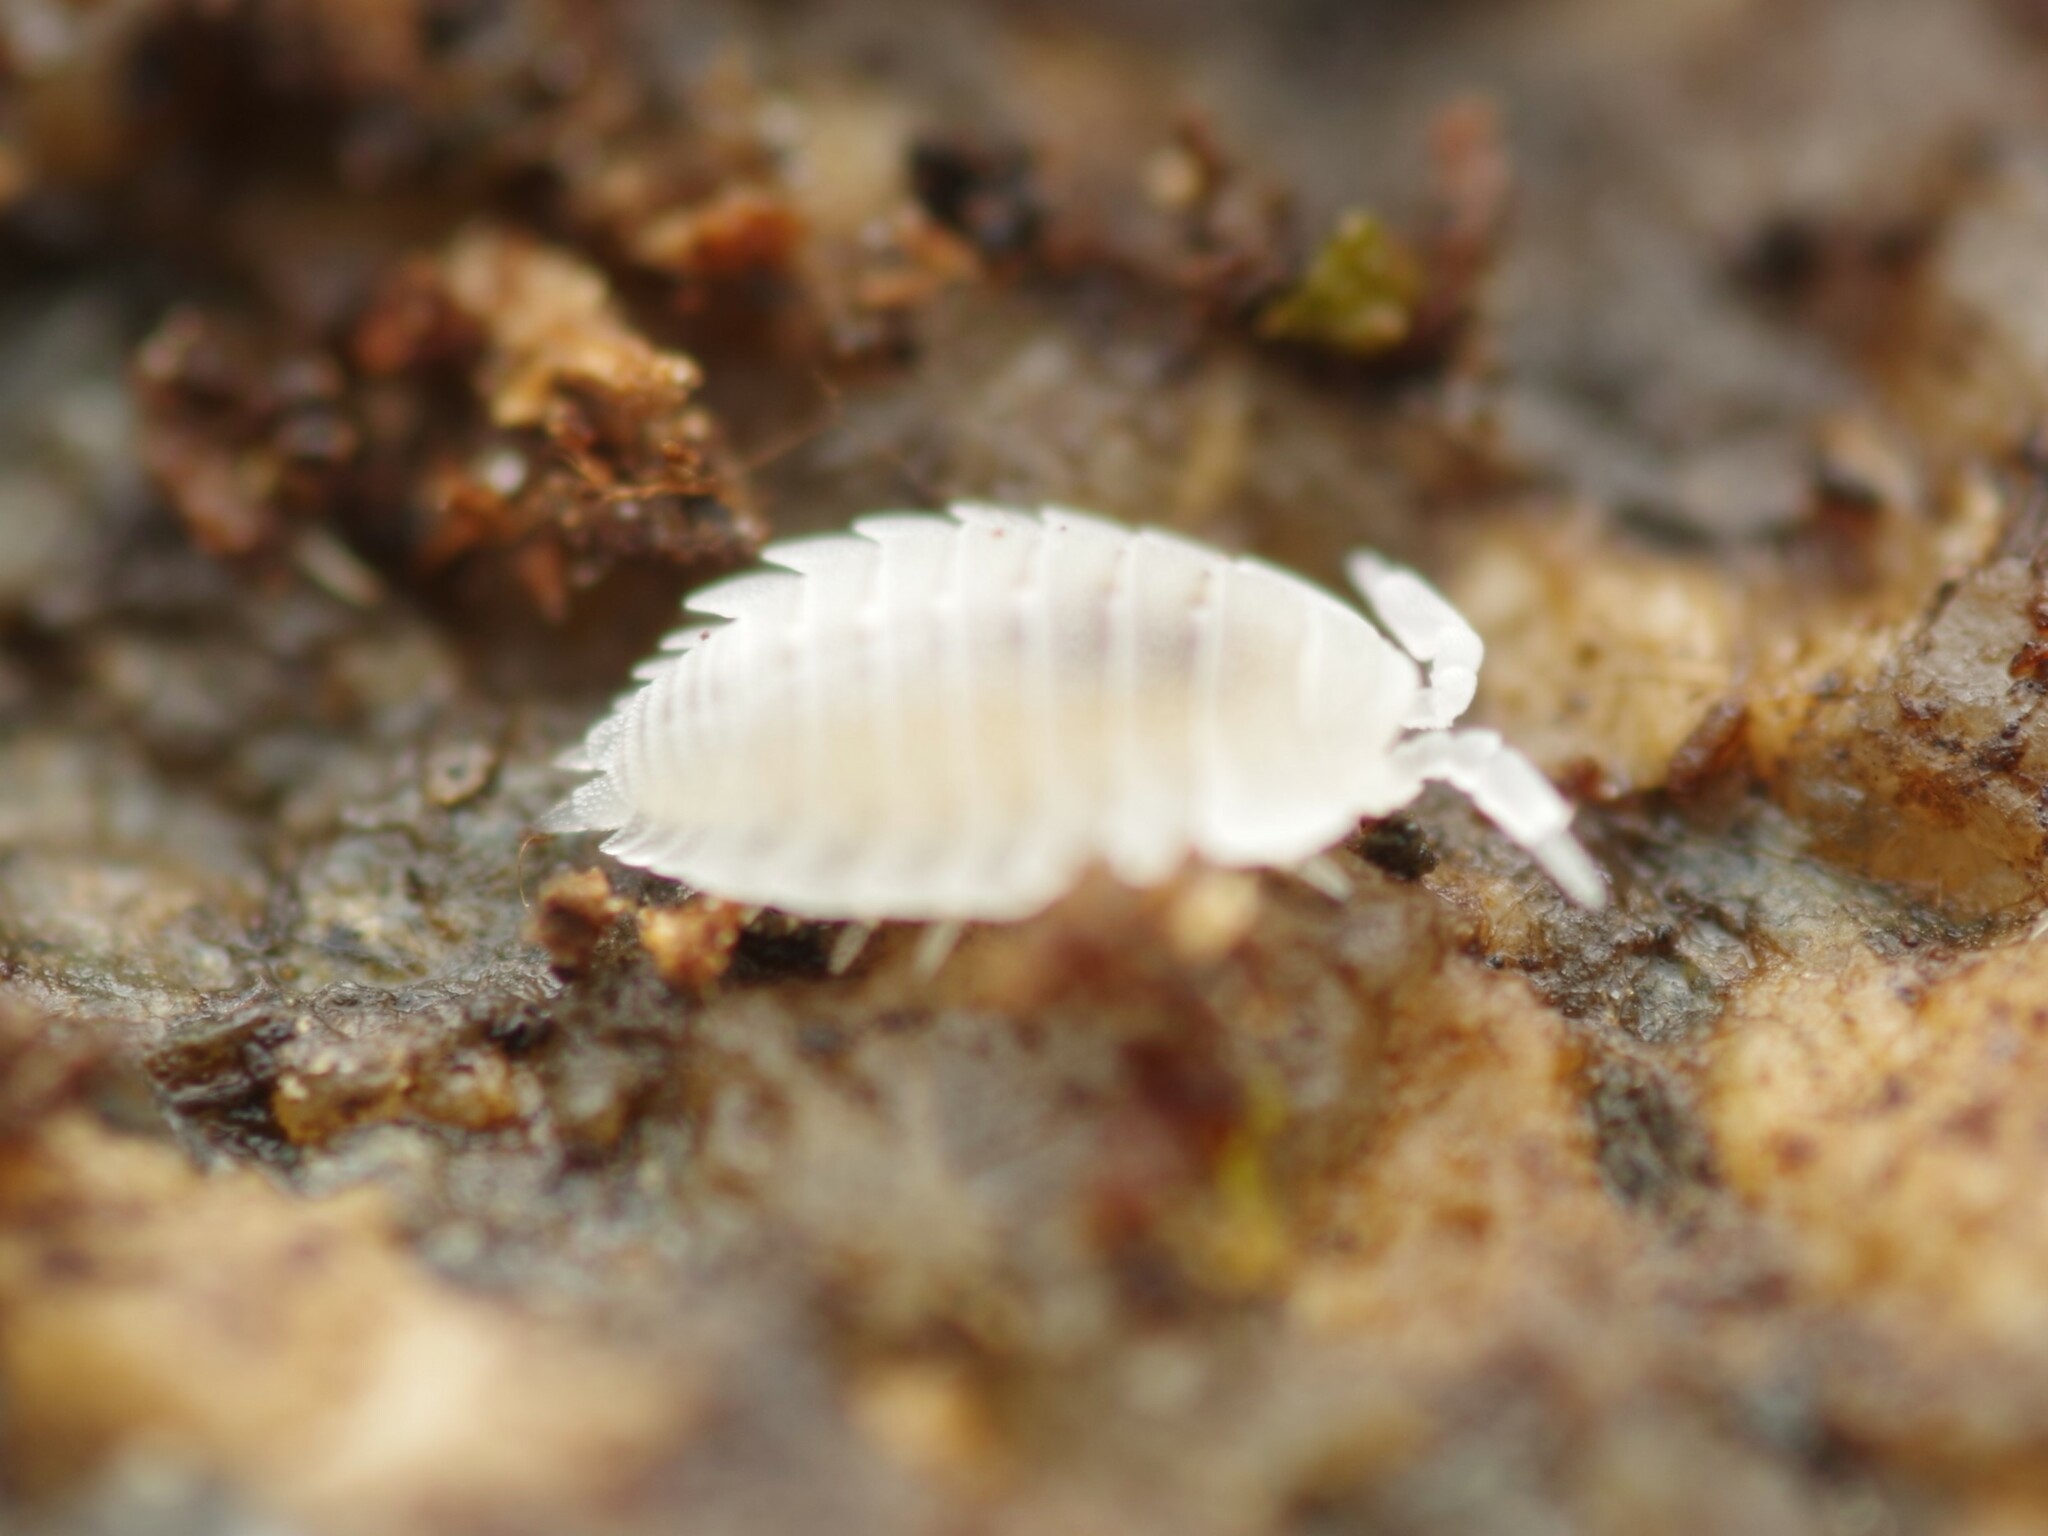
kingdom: Animalia
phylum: Arthropoda
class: Malacostraca
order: Isopoda
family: Platyarthridae
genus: Platyarthrus
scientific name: Platyarthrus hoffmannseggii
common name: Ant woodlouse
